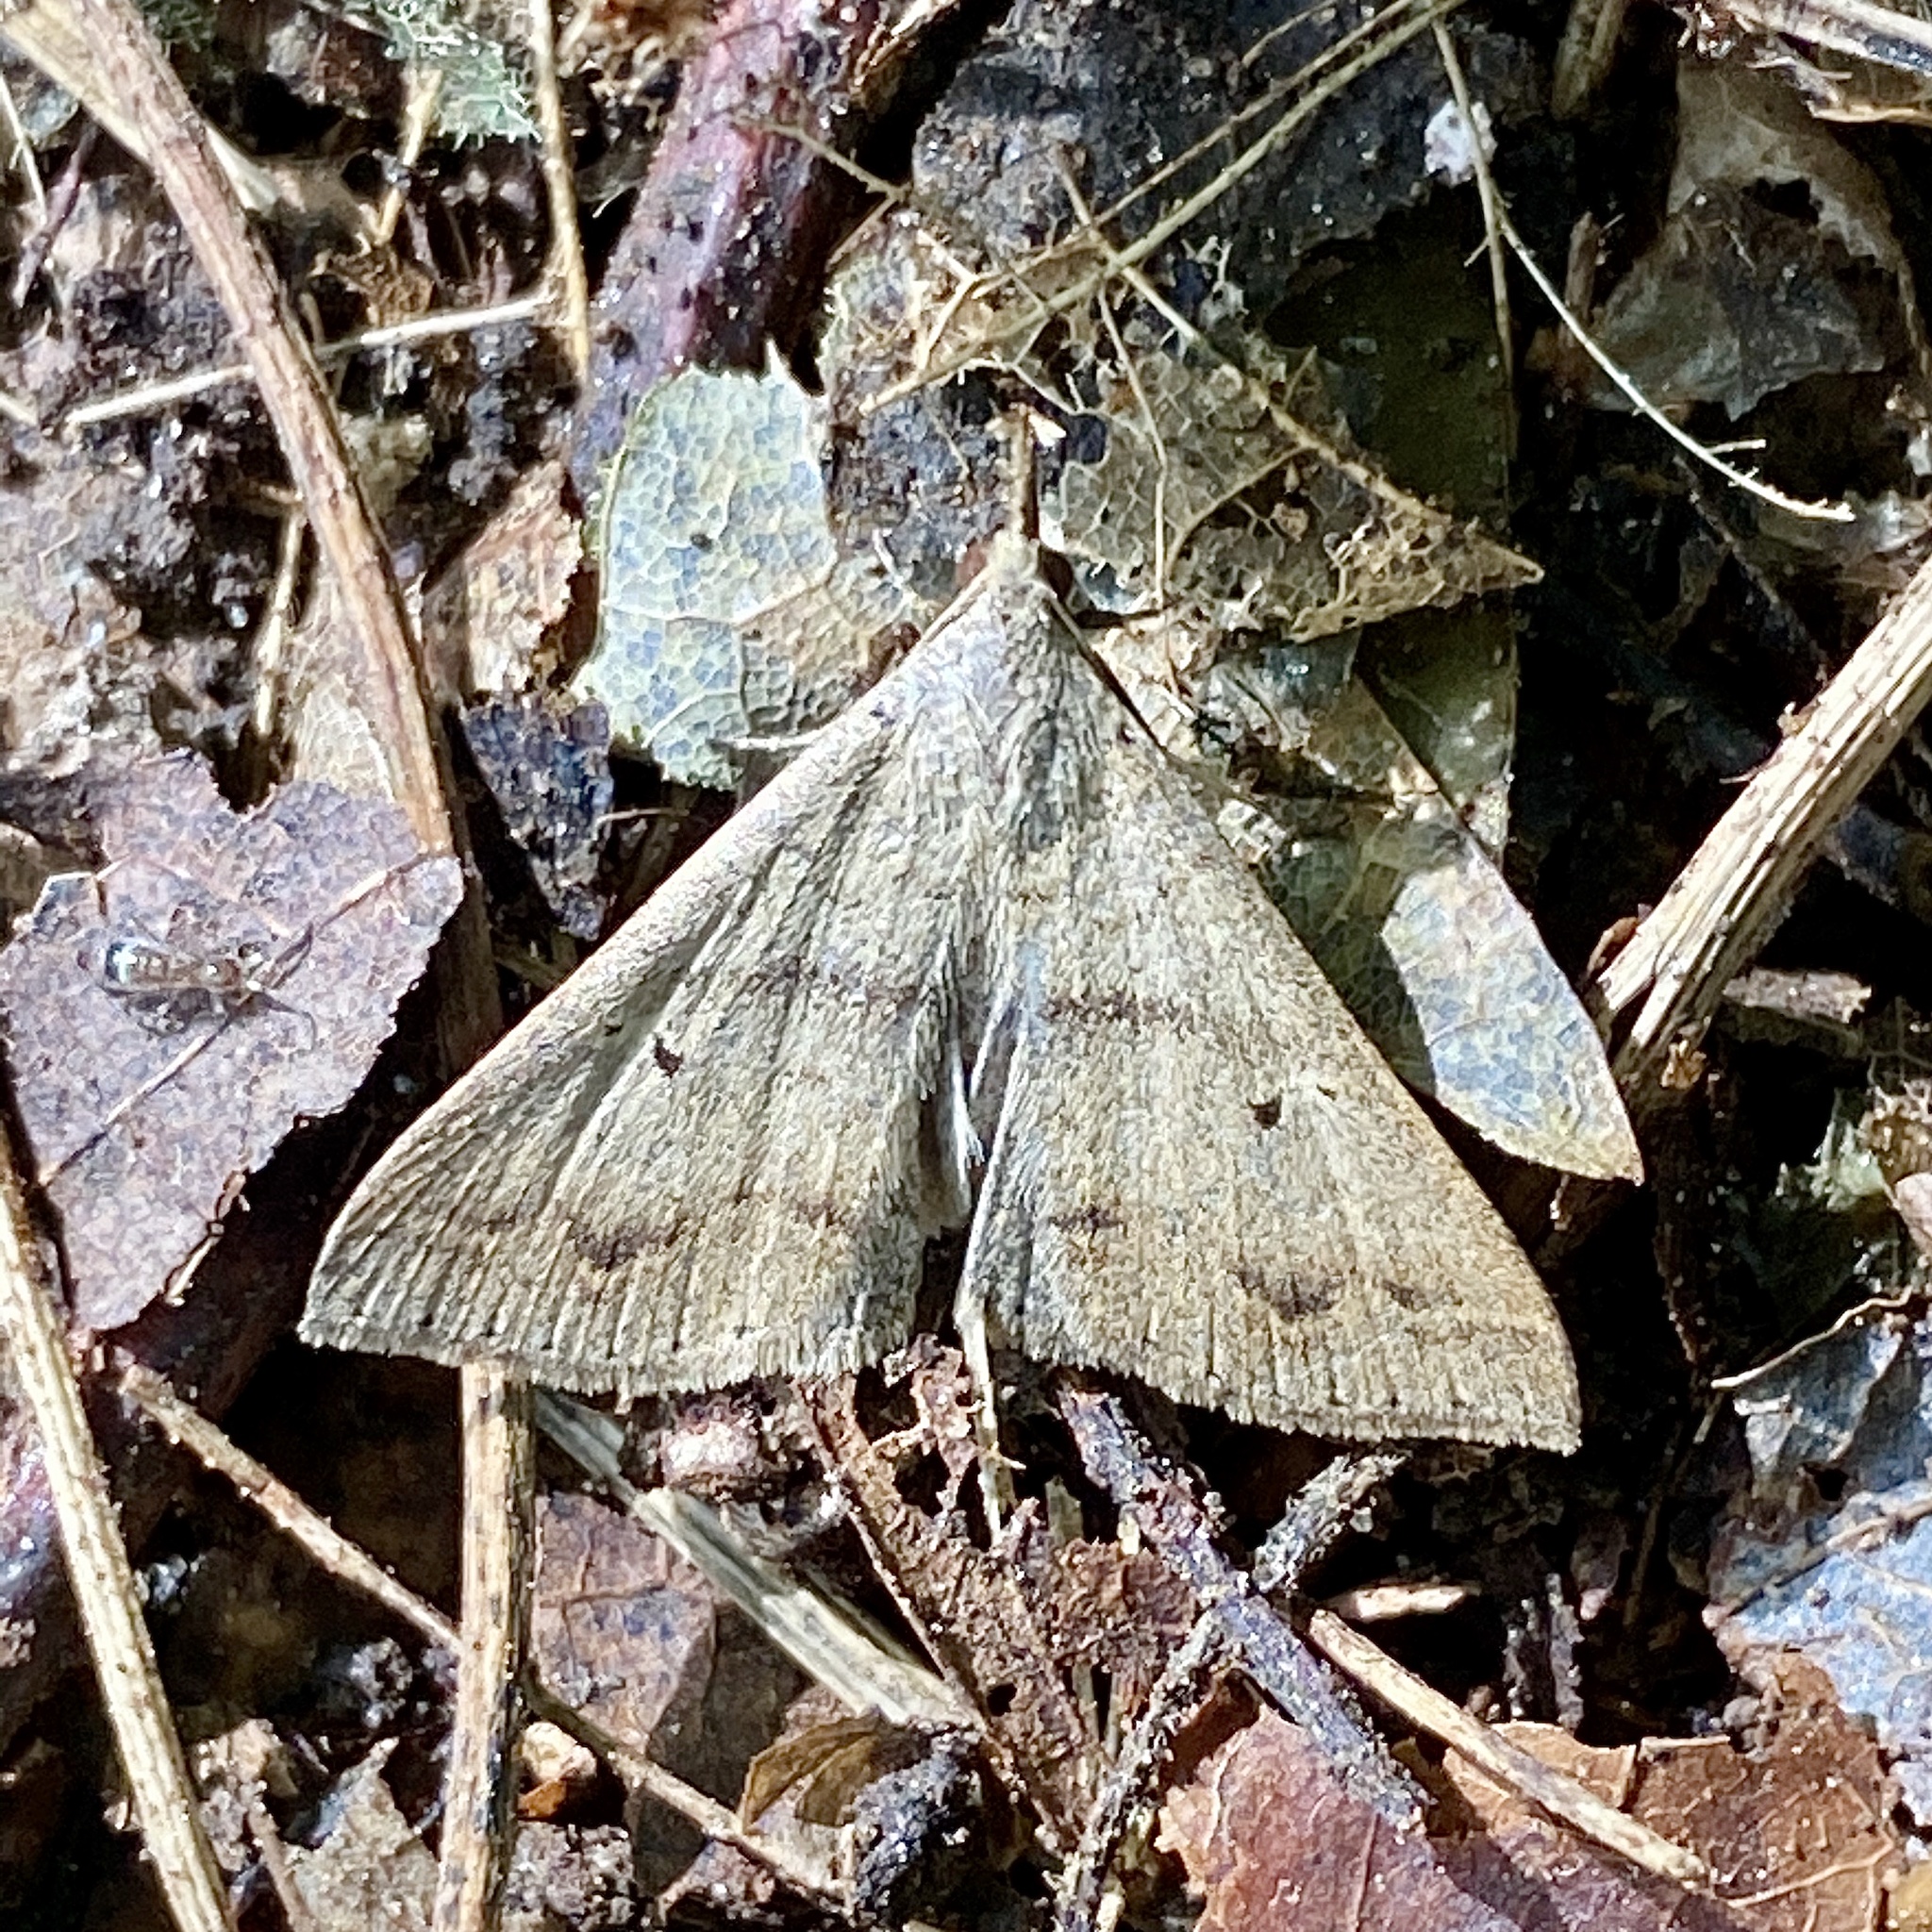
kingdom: Animalia
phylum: Arthropoda
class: Insecta
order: Lepidoptera
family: Erebidae
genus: Renia
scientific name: Renia discoloralis
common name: Discolored renia moth
